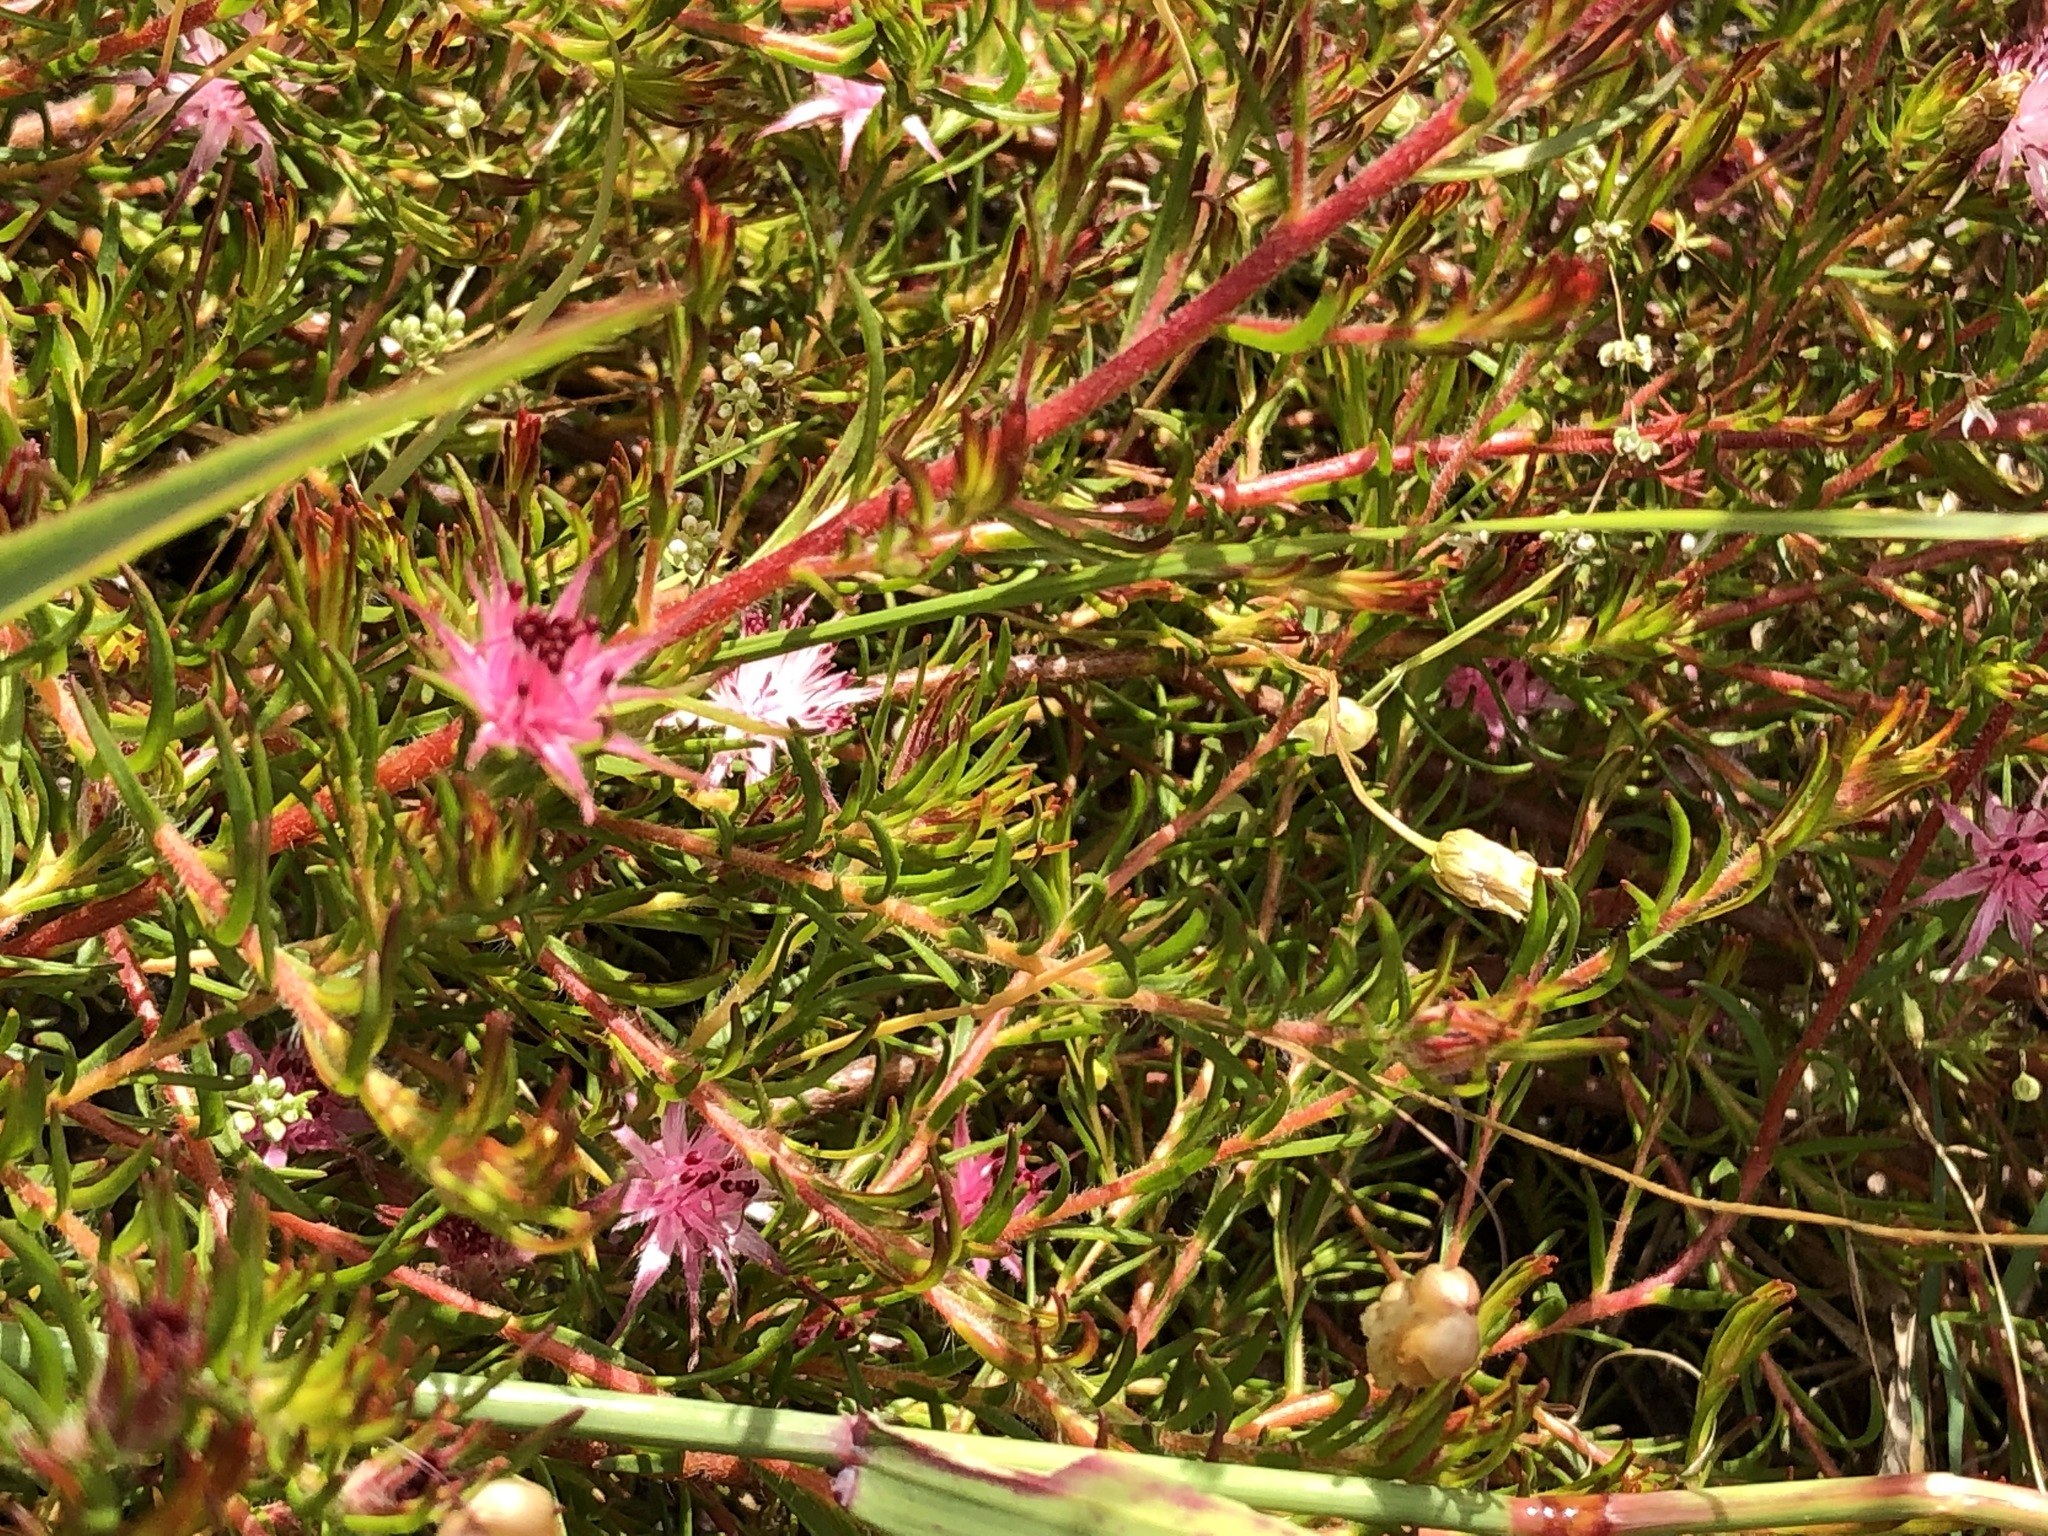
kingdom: Plantae
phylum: Tracheophyta
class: Magnoliopsida
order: Proteales
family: Proteaceae
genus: Diastella
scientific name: Diastella proteoides
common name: Flats silkypuff
